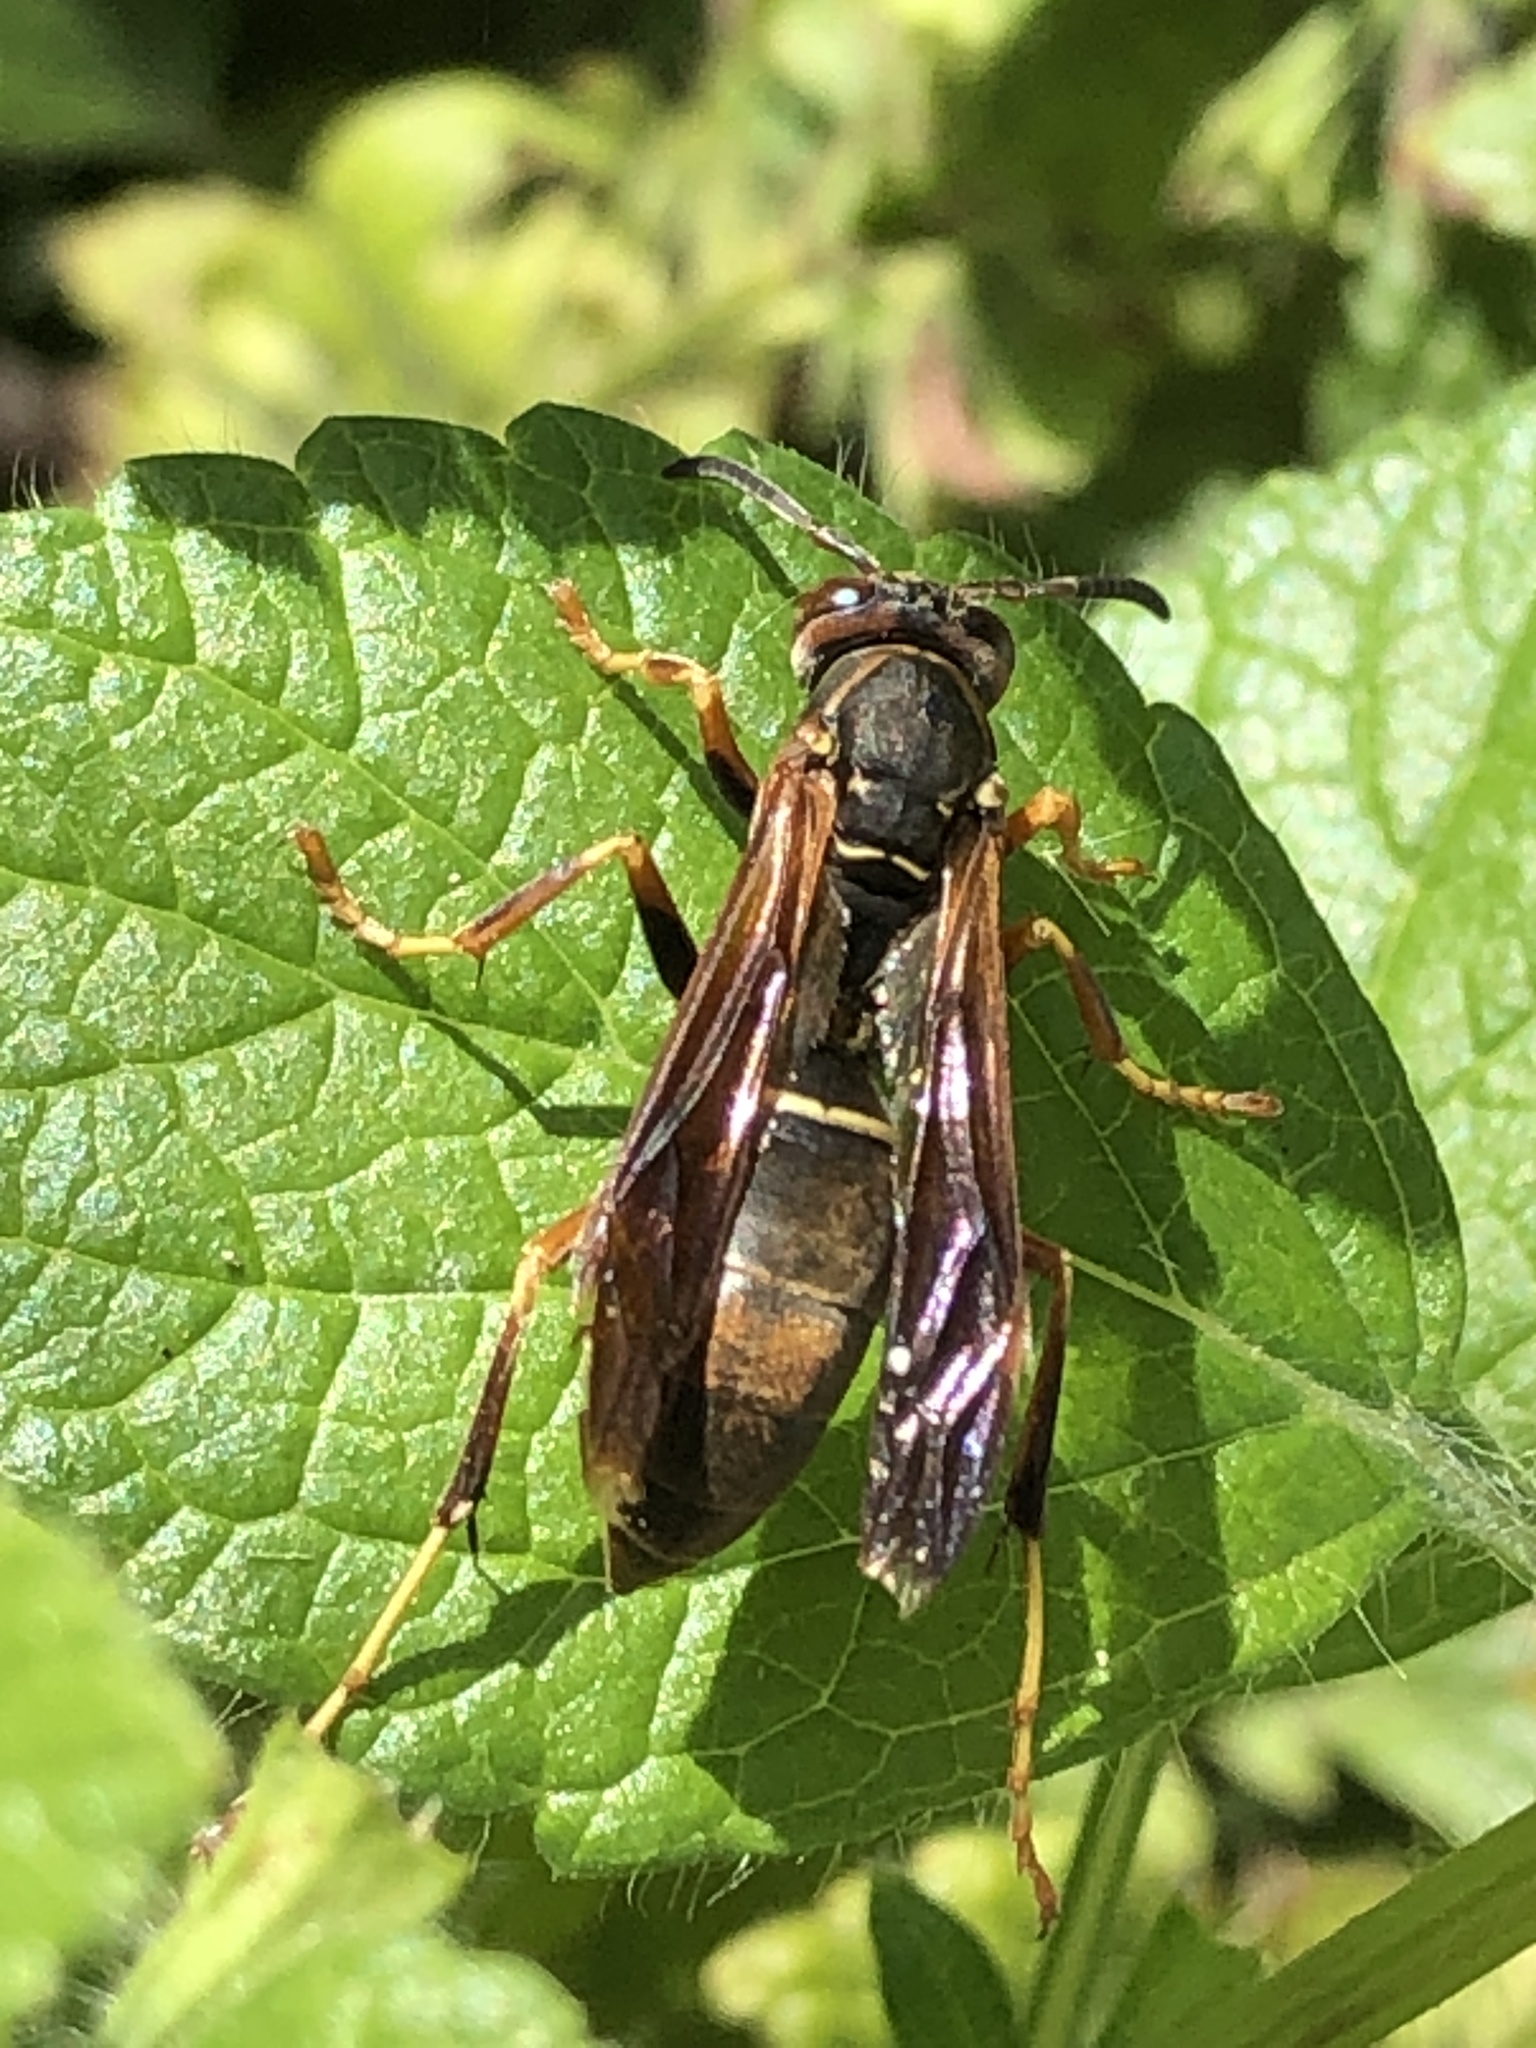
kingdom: Animalia
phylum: Arthropoda
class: Insecta
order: Hymenoptera
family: Eumenidae
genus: Polistes
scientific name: Polistes fuscatus
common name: Dark paper wasp
